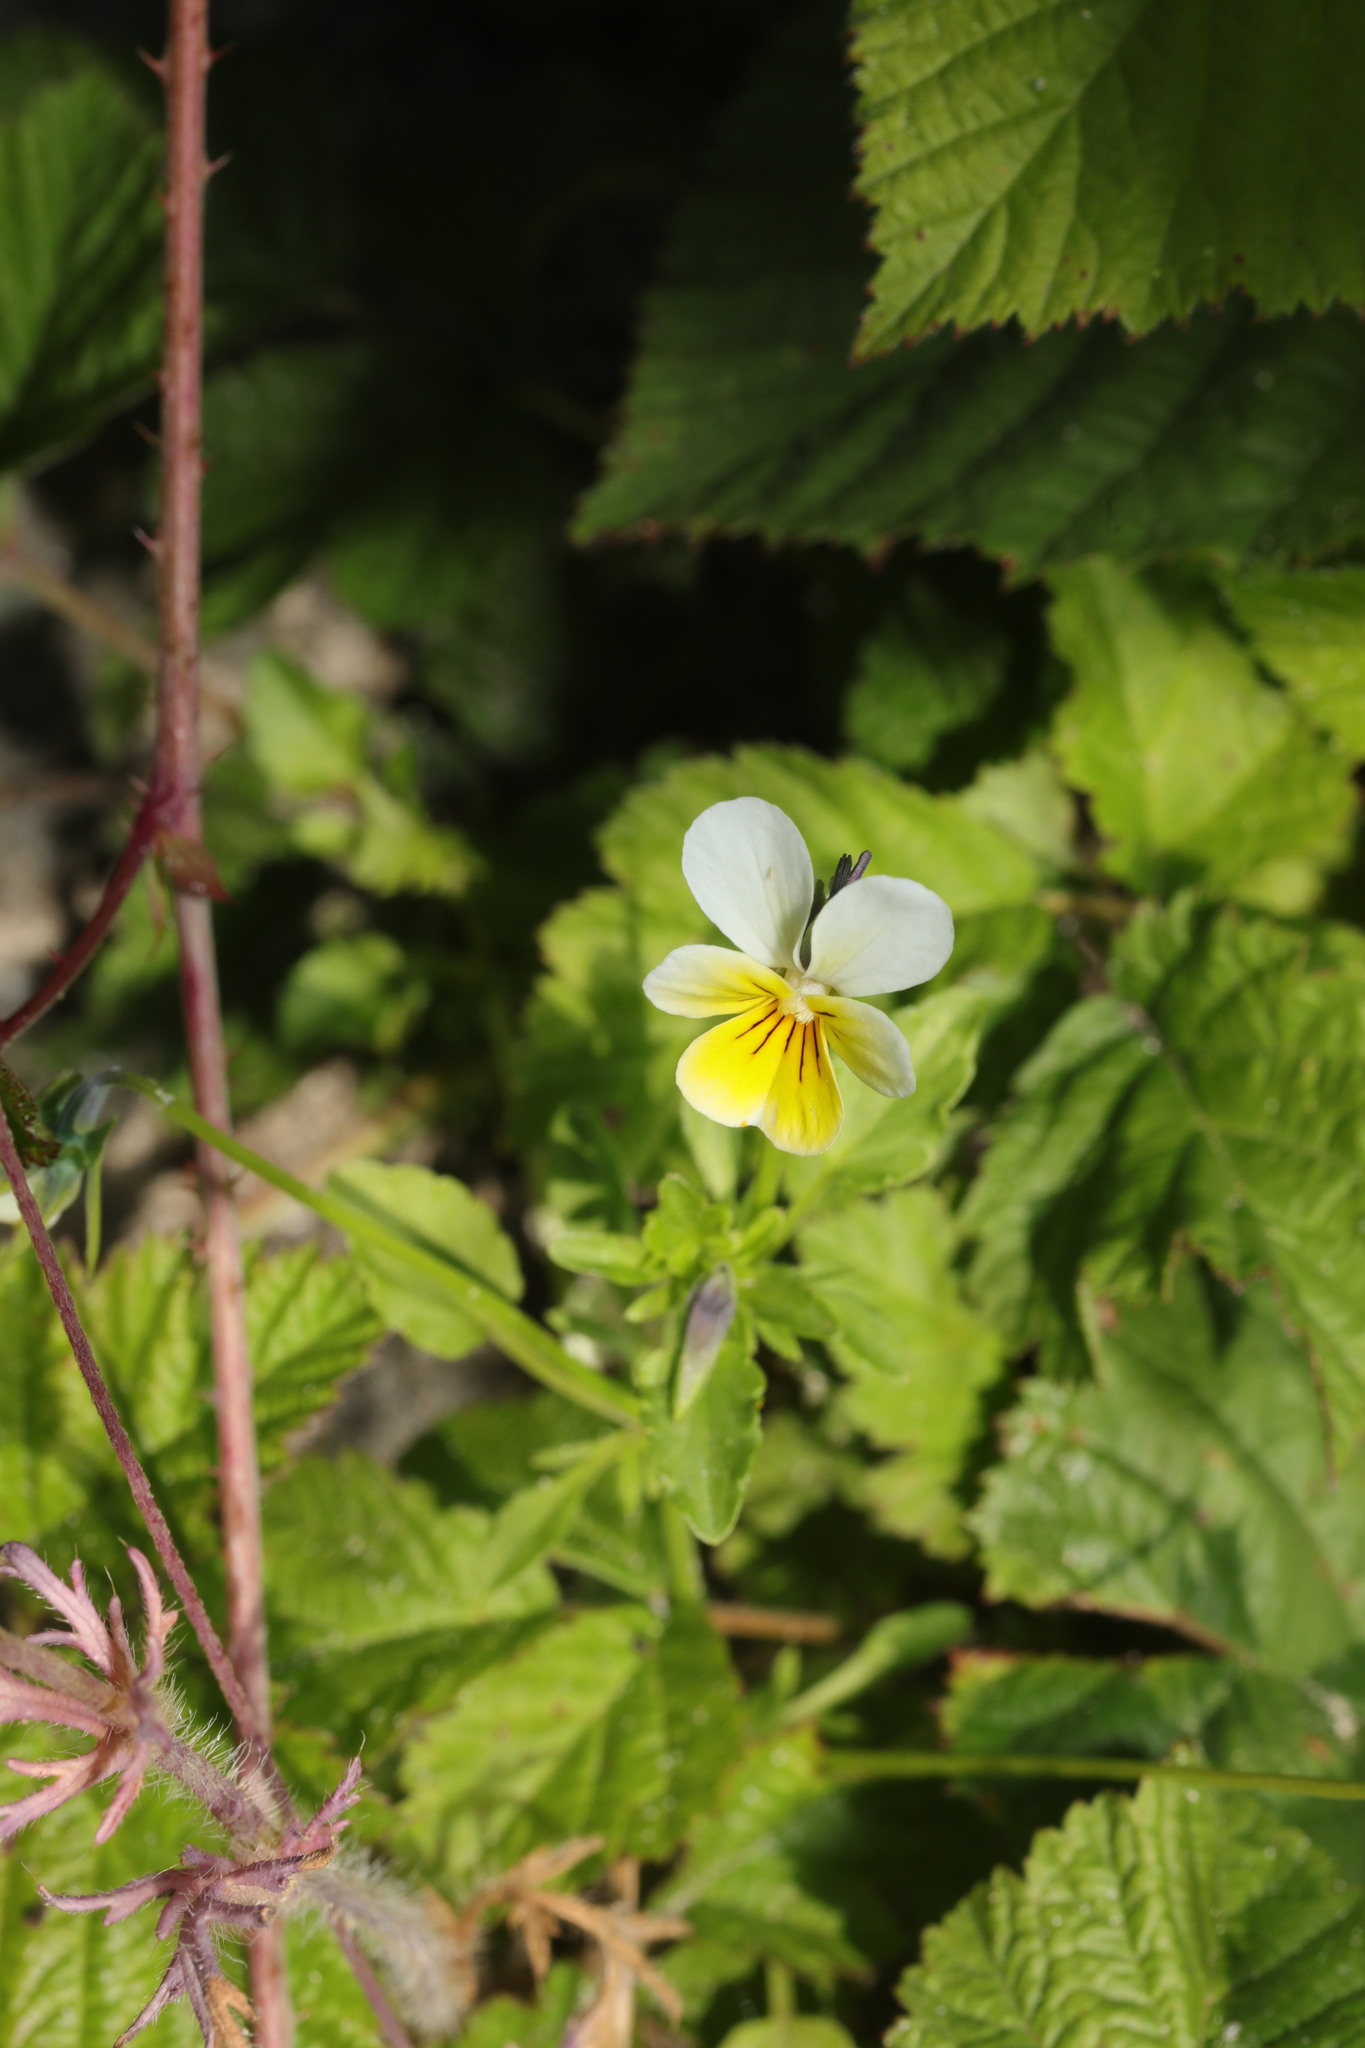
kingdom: Plantae
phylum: Tracheophyta
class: Magnoliopsida
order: Malpighiales
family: Violaceae
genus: Viola
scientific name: Viola arvensis
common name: Field pansy
